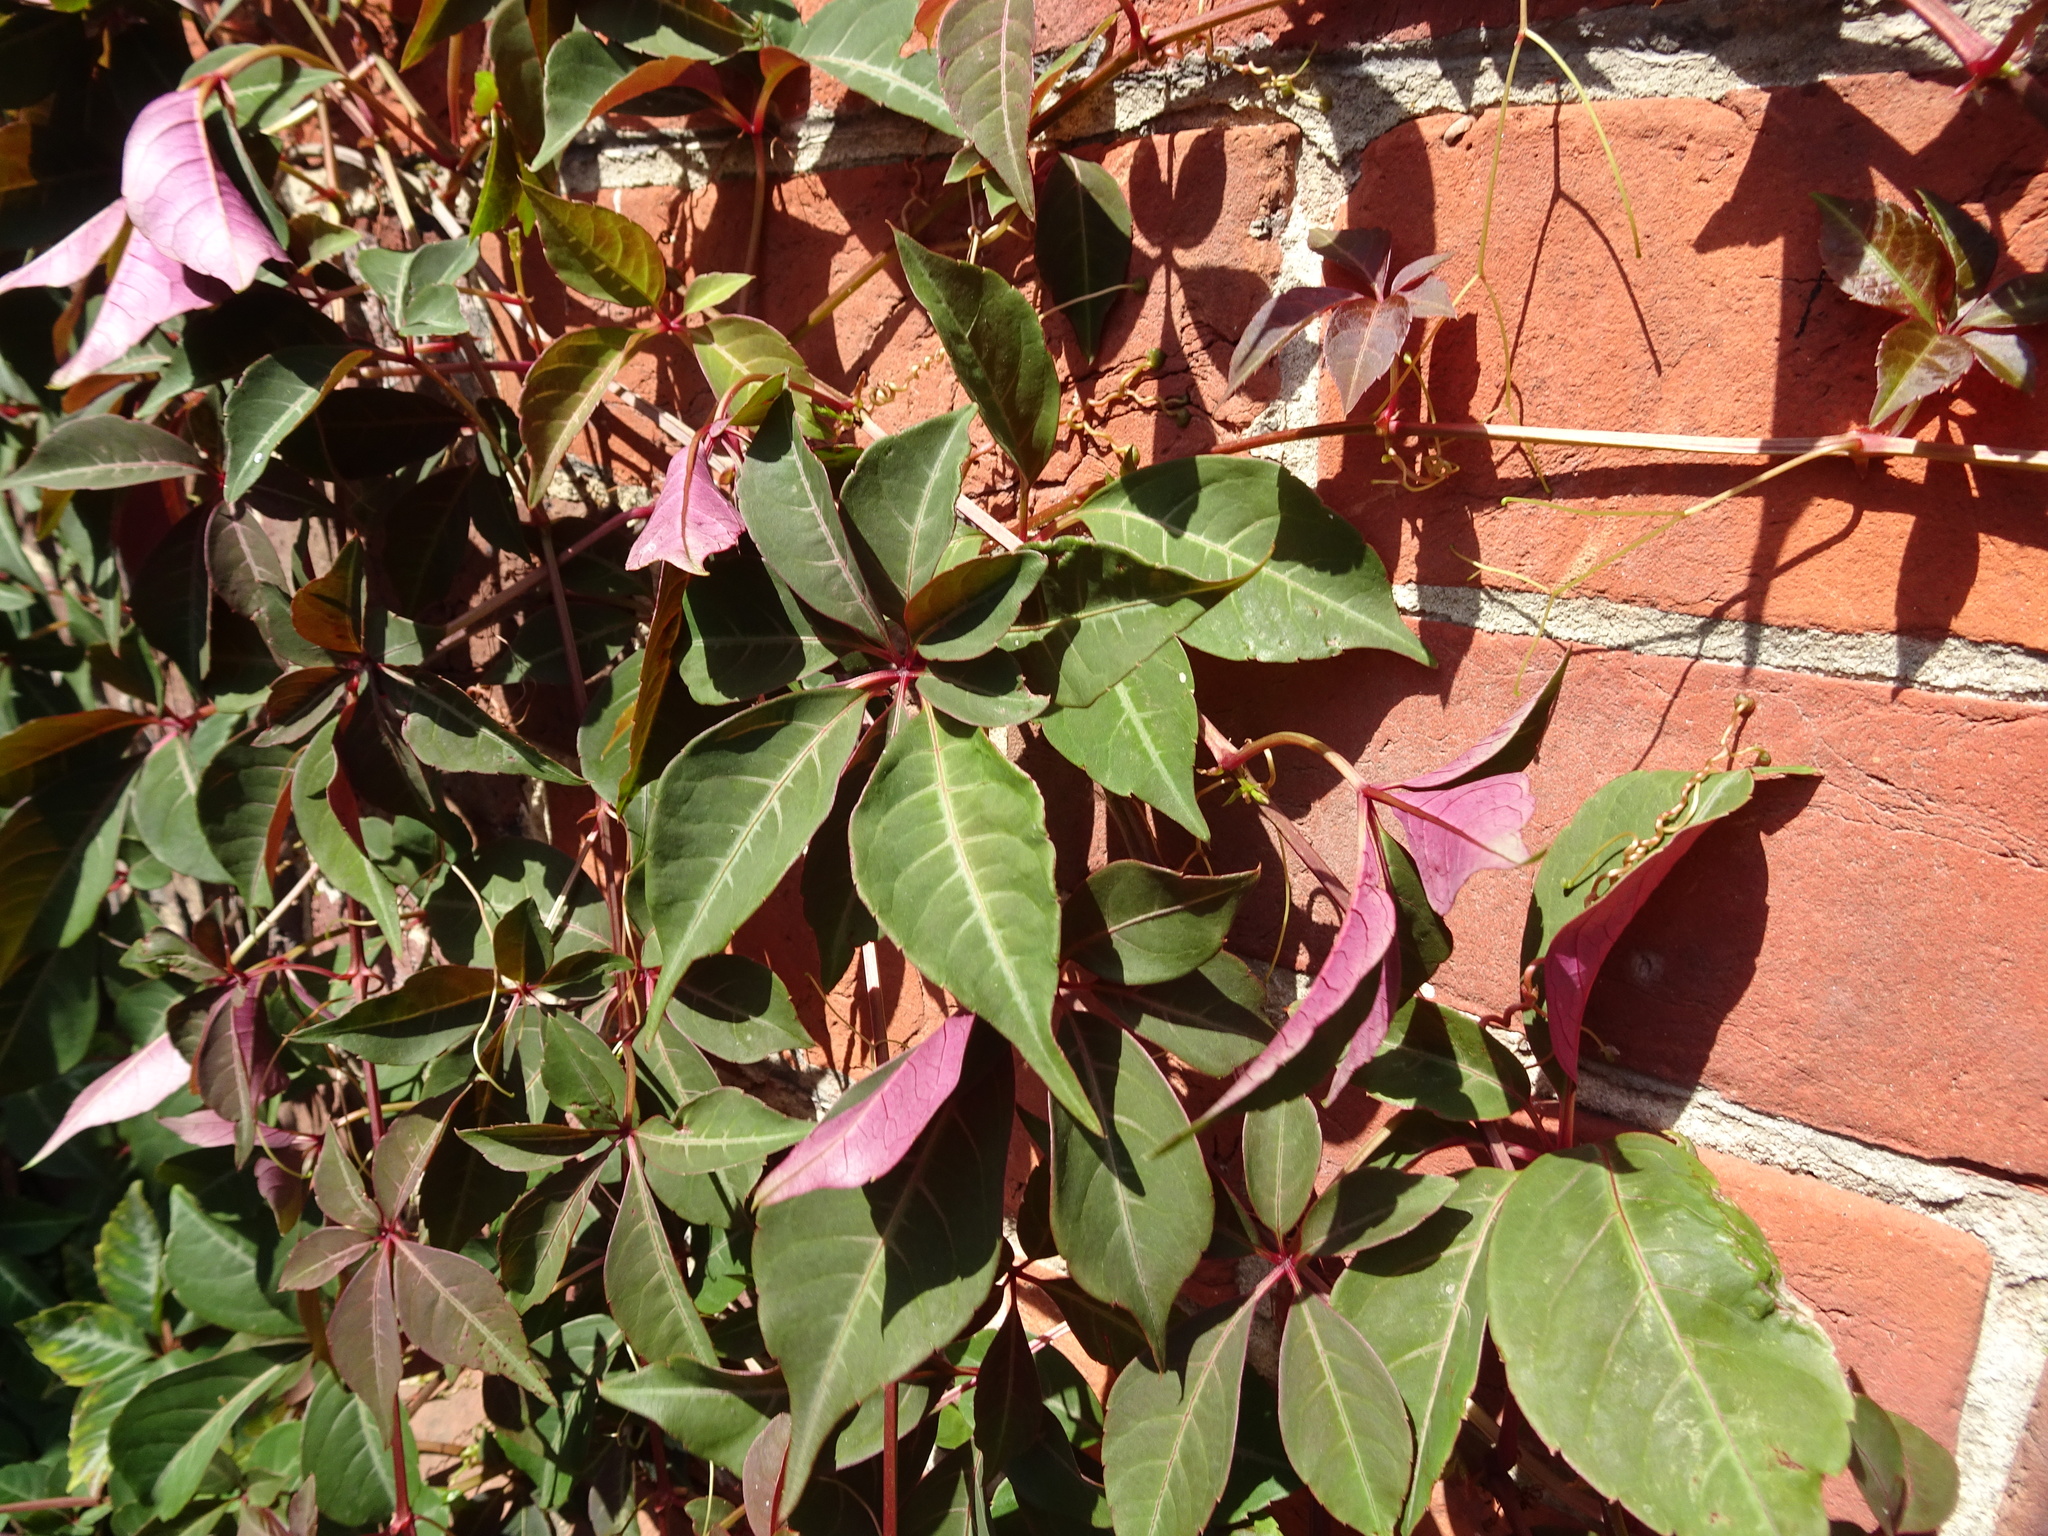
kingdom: Plantae
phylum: Tracheophyta
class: Magnoliopsida
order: Vitales
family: Vitaceae
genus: Parthenocissus
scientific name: Parthenocissus henryana
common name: Chinese virginia-creeper
